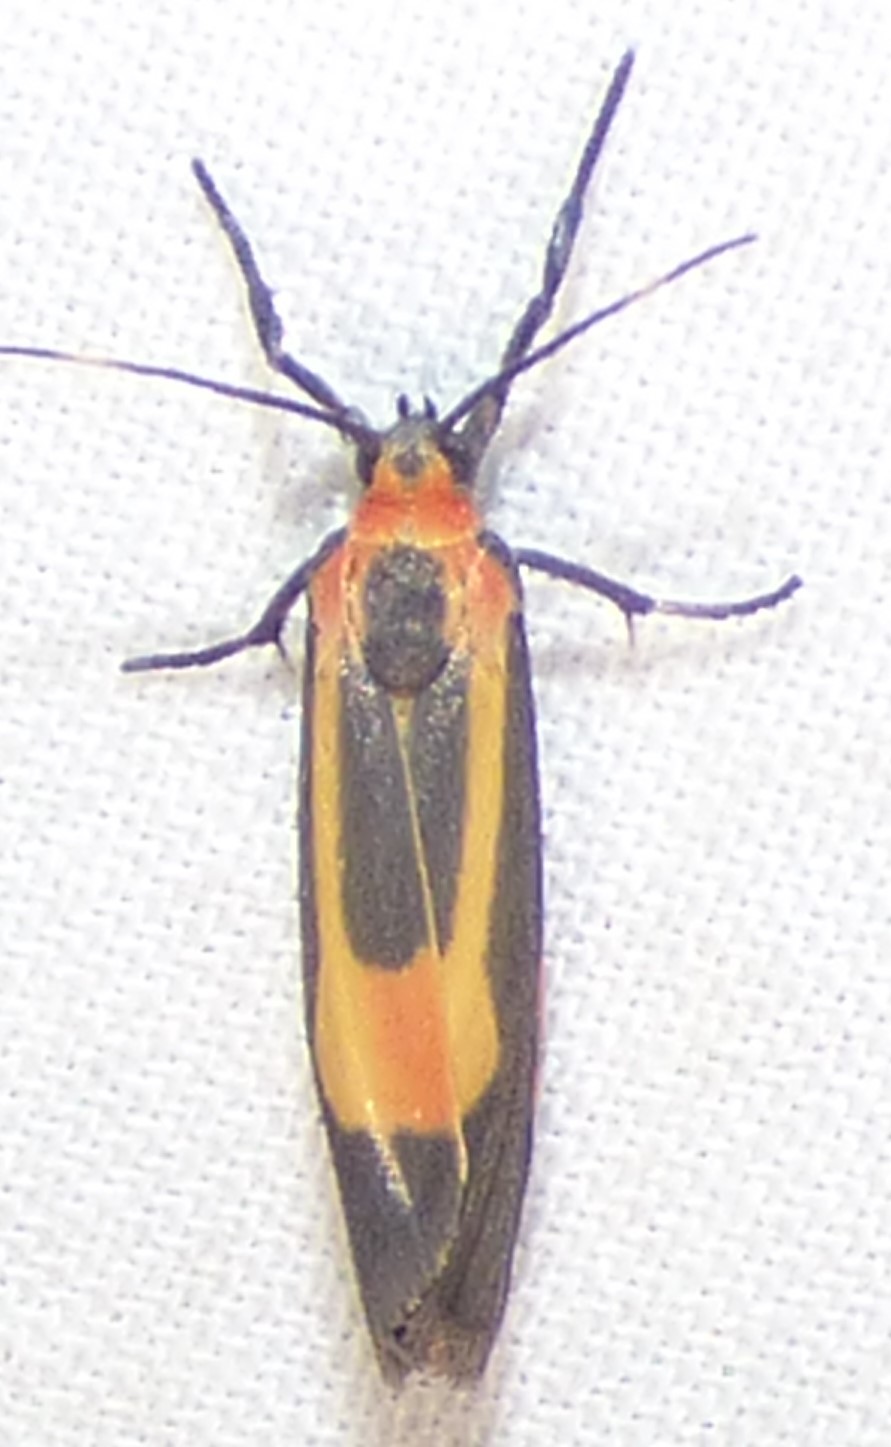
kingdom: Animalia
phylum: Arthropoda
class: Insecta
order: Lepidoptera
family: Erebidae
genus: Cisthene
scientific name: Cisthene packardii
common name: Packard's lichen moth
